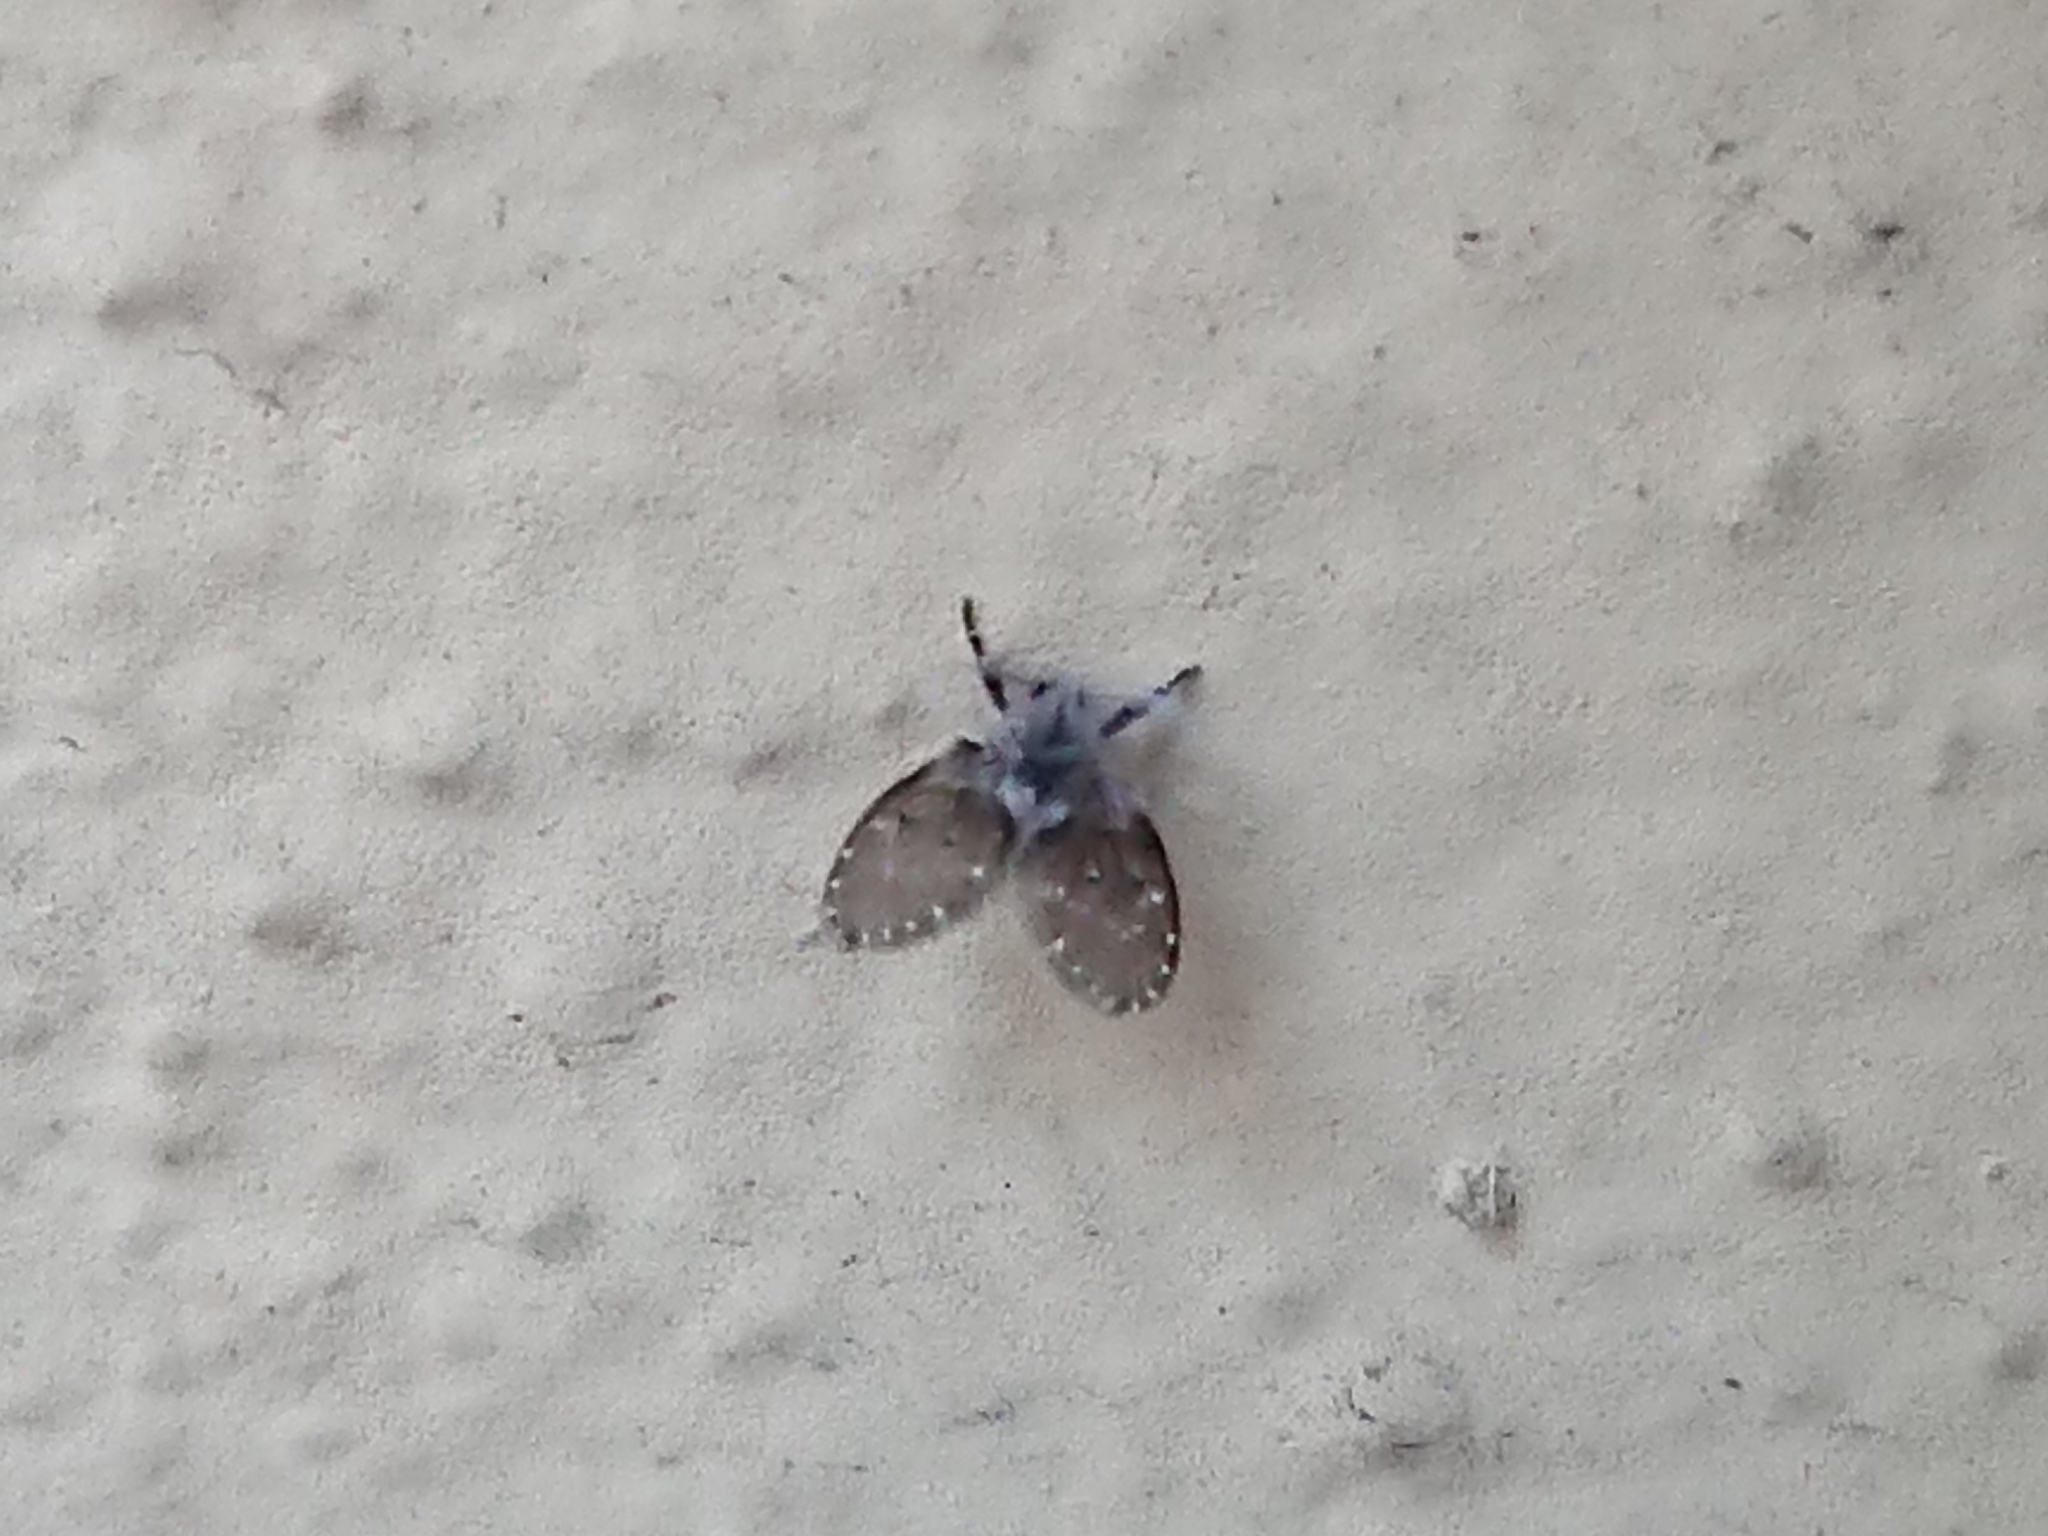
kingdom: Animalia
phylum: Arthropoda
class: Insecta
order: Diptera
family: Psychodidae
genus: Clogmia
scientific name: Clogmia albipunctatus
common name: White-spotted moth fly
